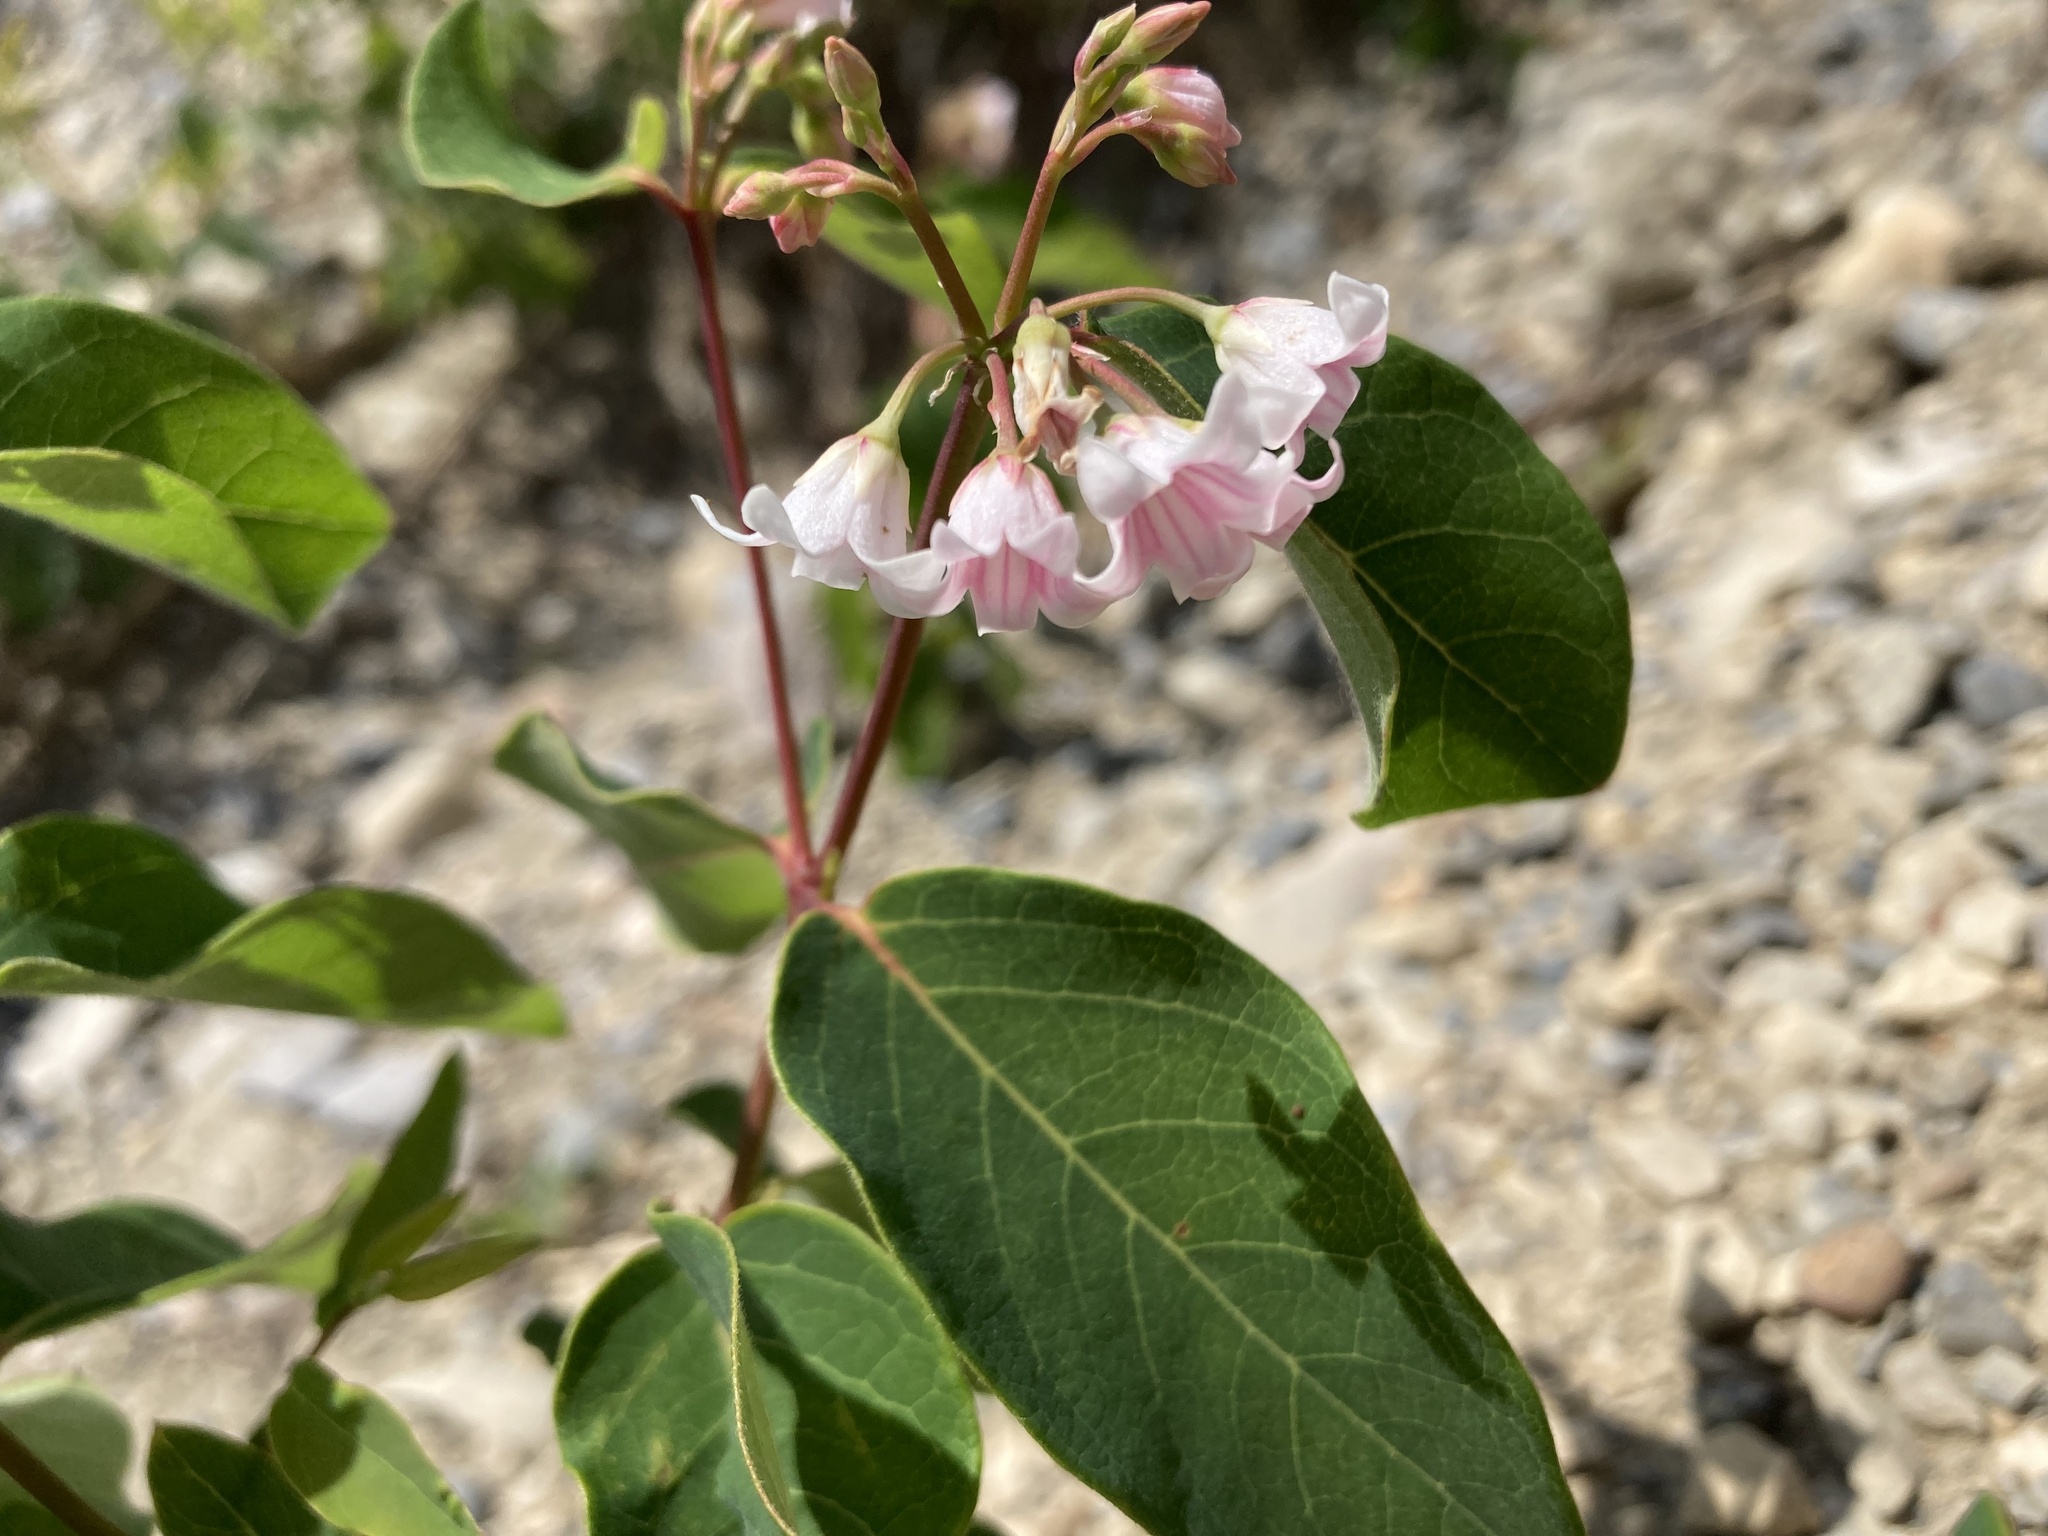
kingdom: Plantae
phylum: Tracheophyta
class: Magnoliopsida
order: Gentianales
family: Apocynaceae
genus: Apocynum
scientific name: Apocynum androsaemifolium
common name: Spreading dogbane
